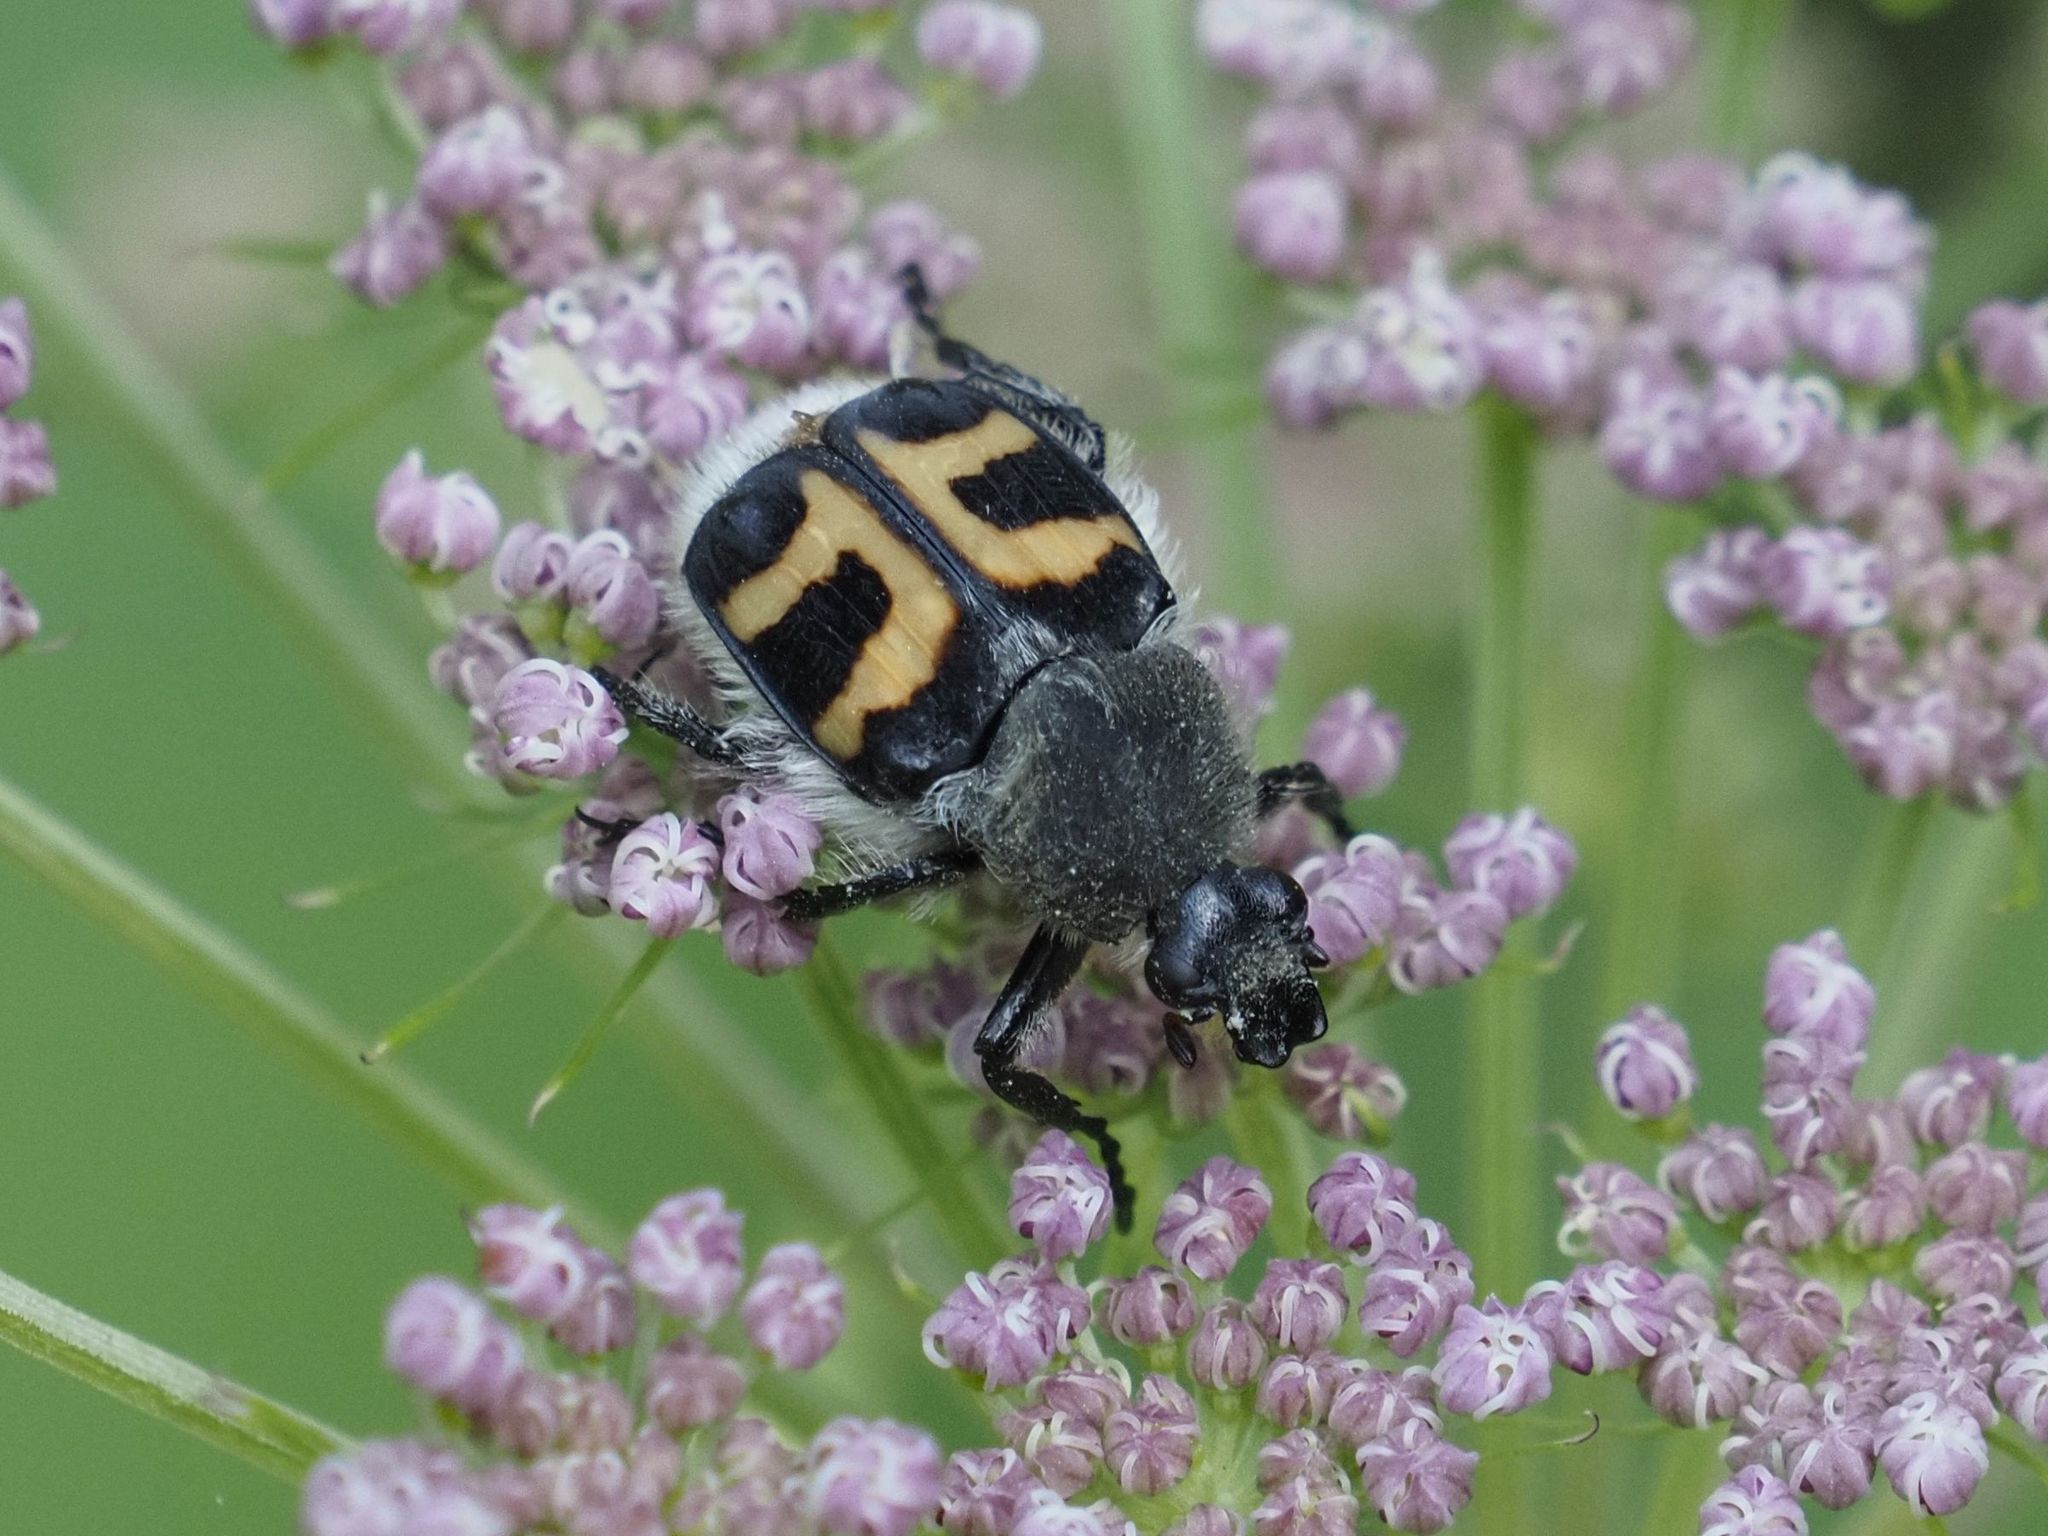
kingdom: Animalia
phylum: Arthropoda
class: Insecta
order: Coleoptera
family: Scarabaeidae
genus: Trichius
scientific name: Trichius fasciatus
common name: Bee beetle
